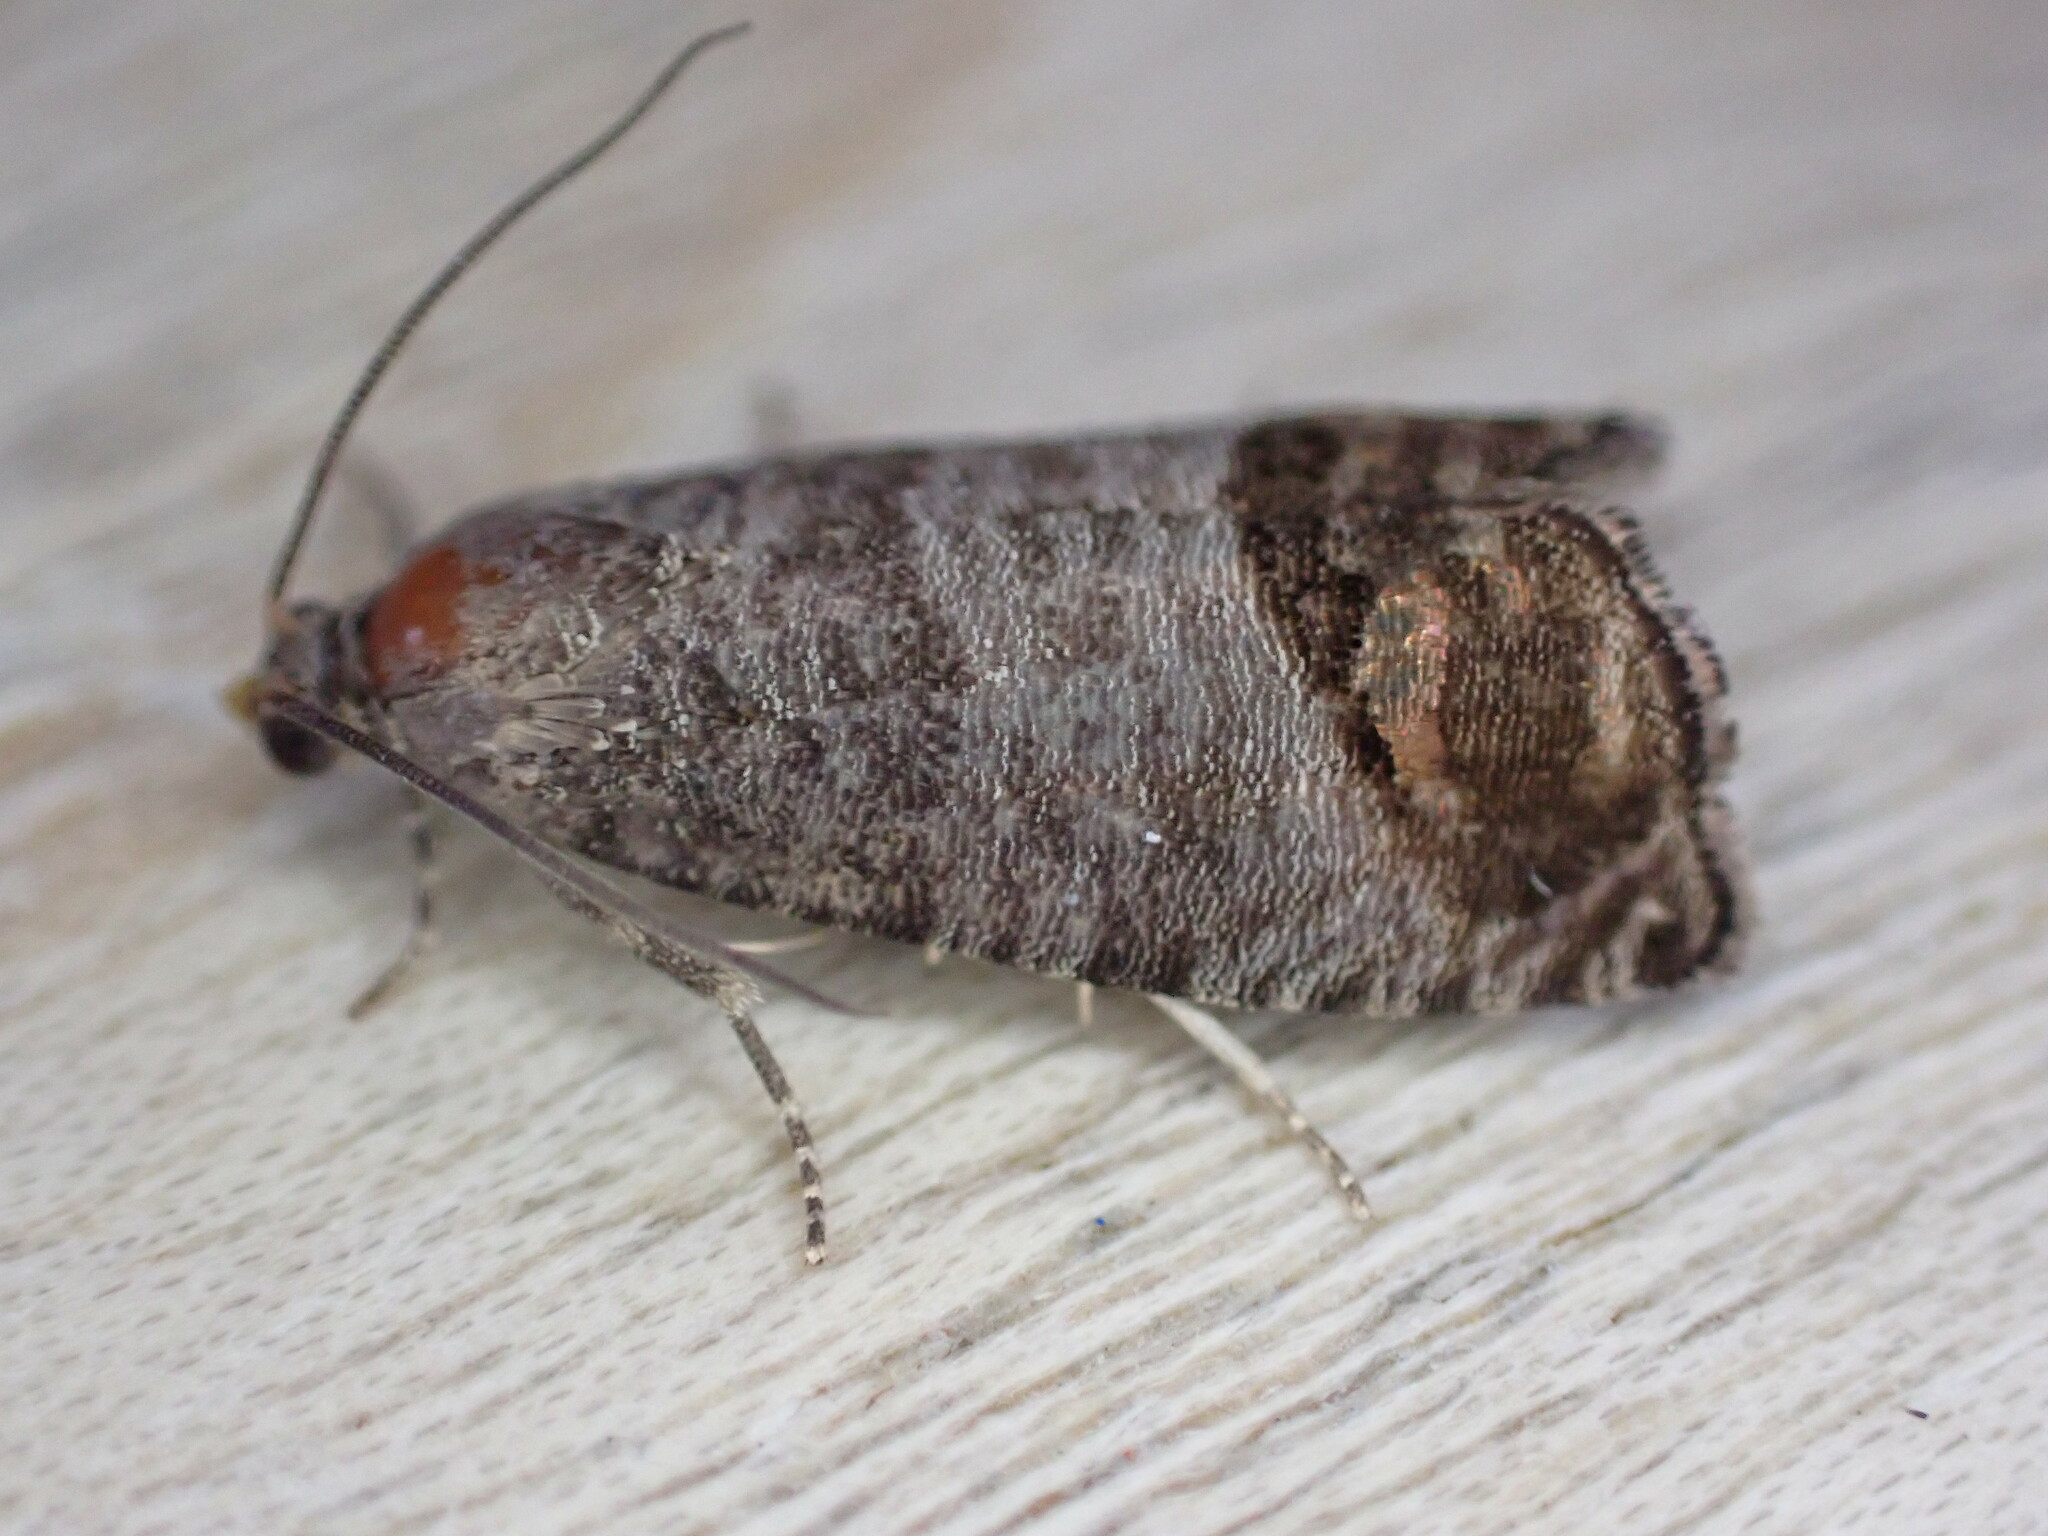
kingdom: Animalia
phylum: Arthropoda
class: Insecta
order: Lepidoptera
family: Tortricidae
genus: Cydia
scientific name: Cydia pomonella
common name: Codling moth
